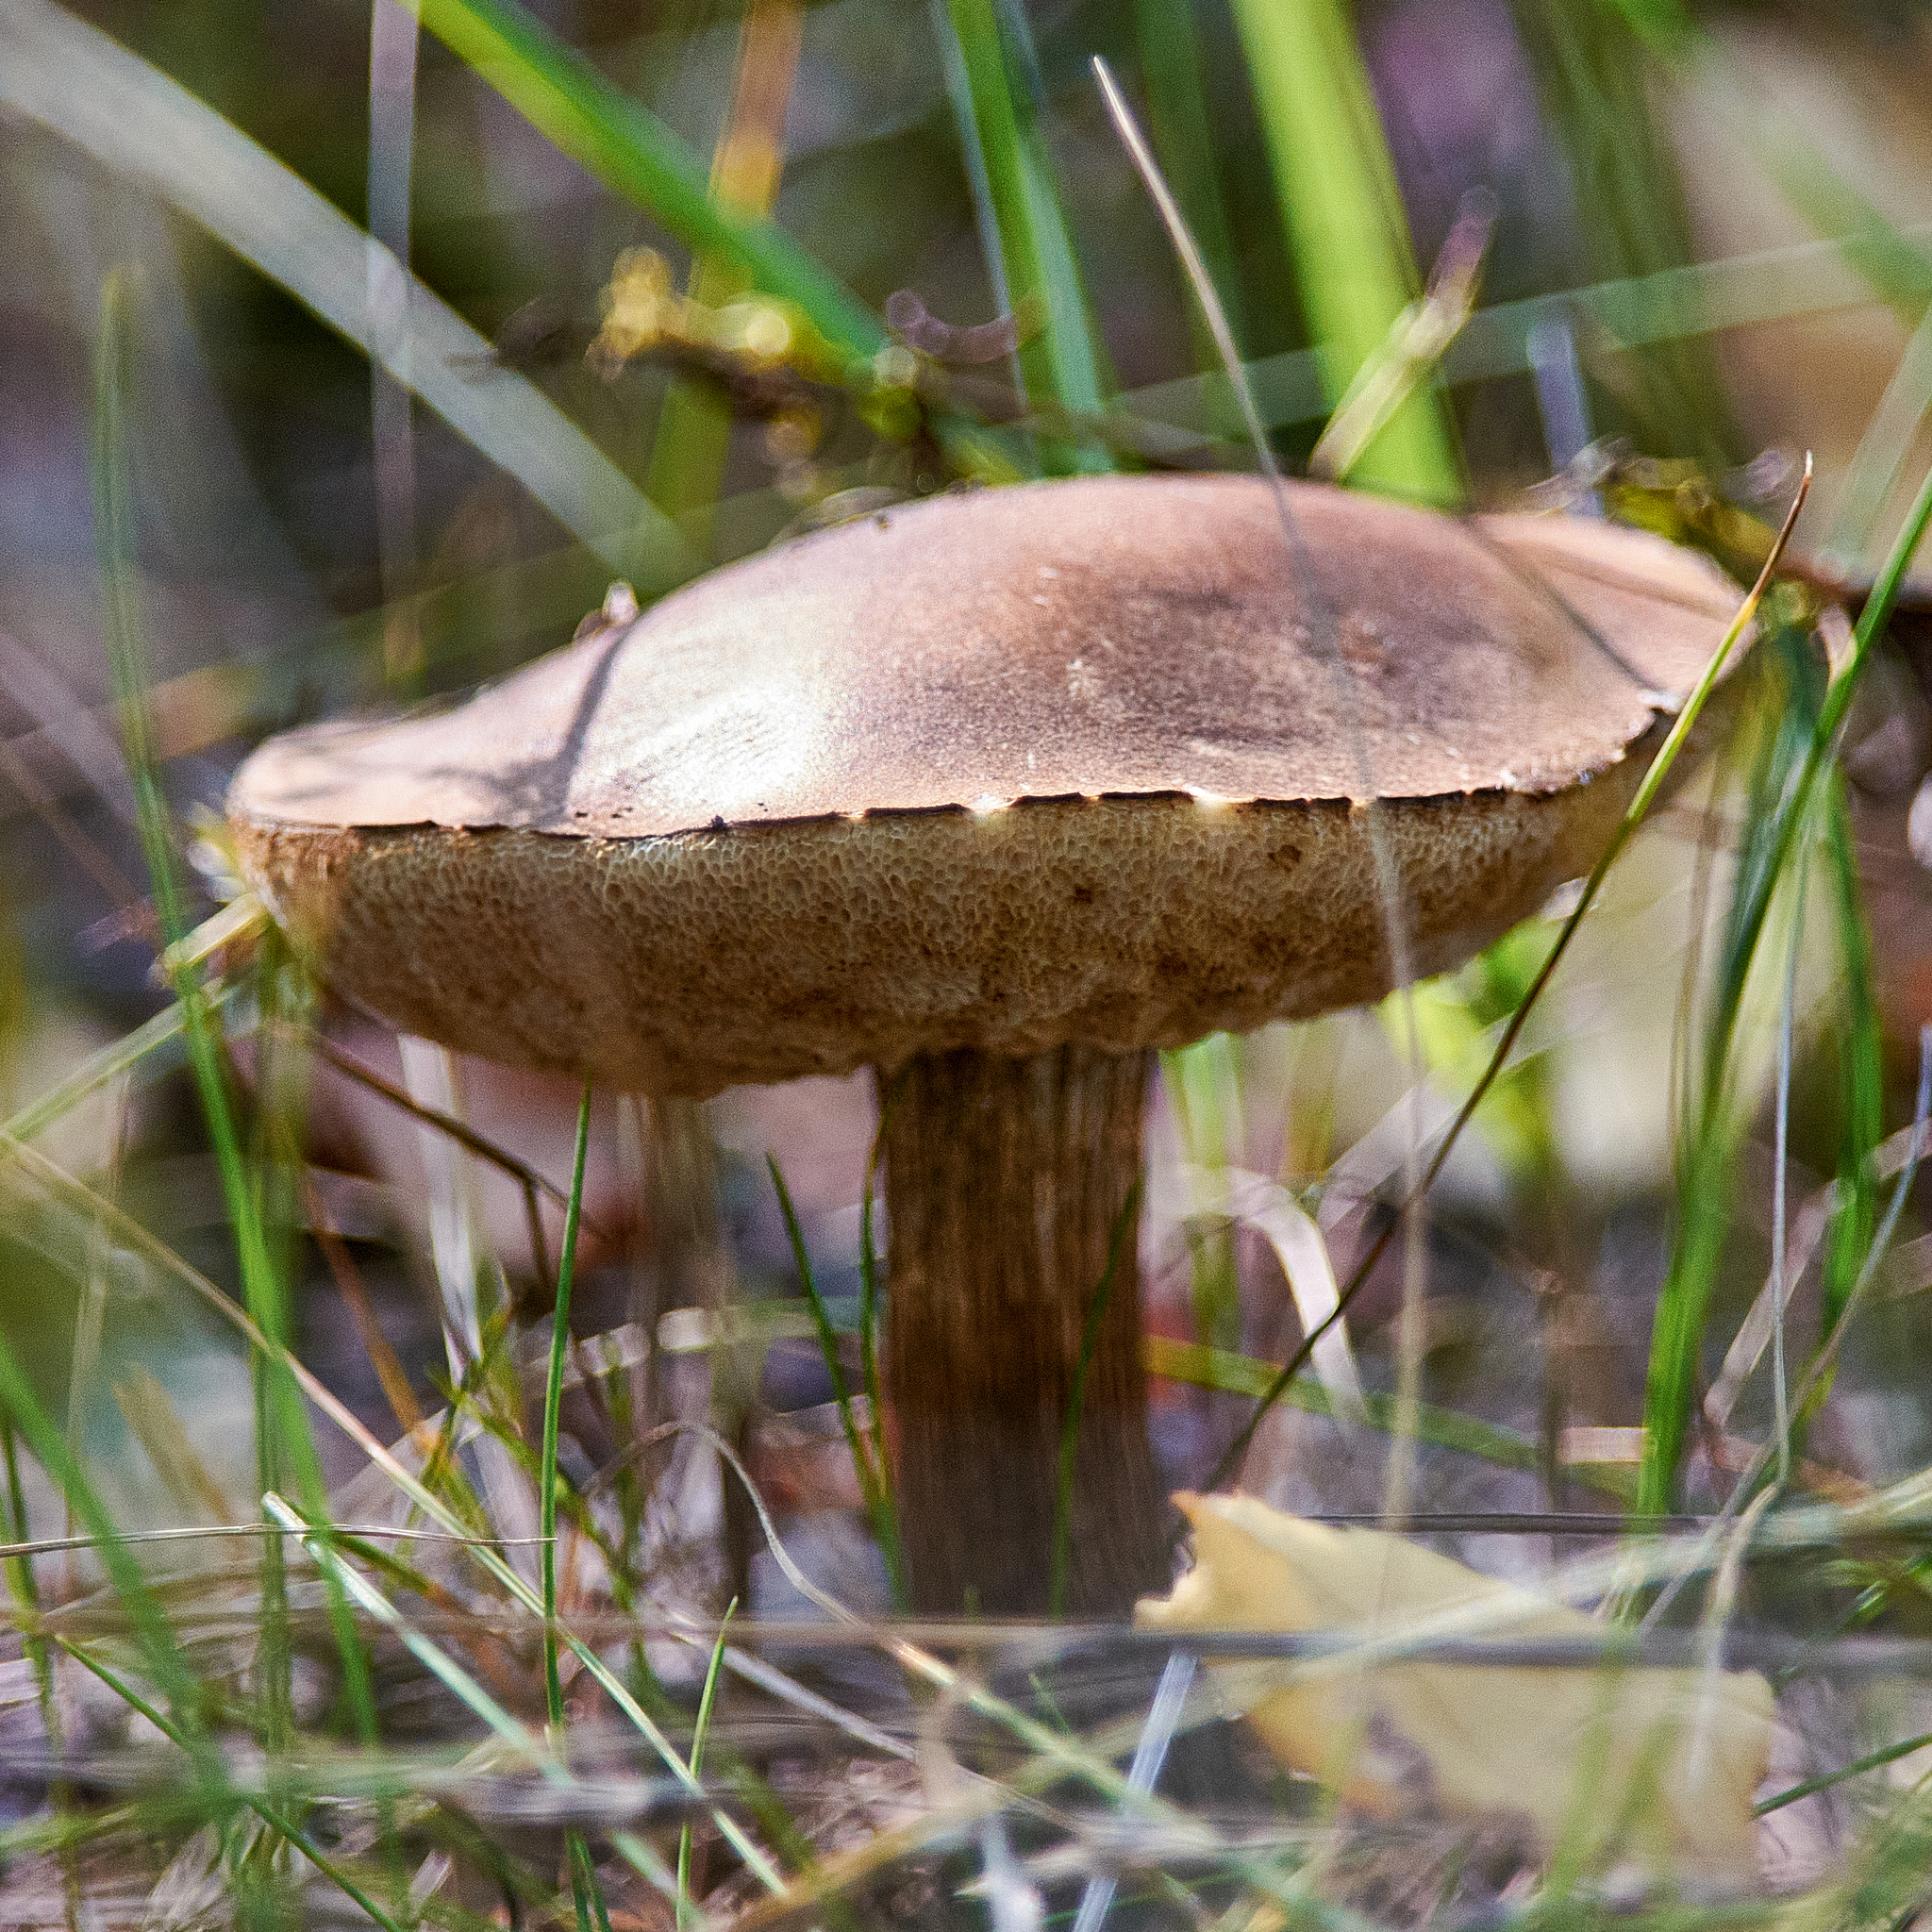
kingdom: Fungi
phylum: Basidiomycota
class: Agaricomycetes
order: Boletales
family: Boletaceae
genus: Leccinum
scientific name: Leccinum scabrum
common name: Blushing bolete
